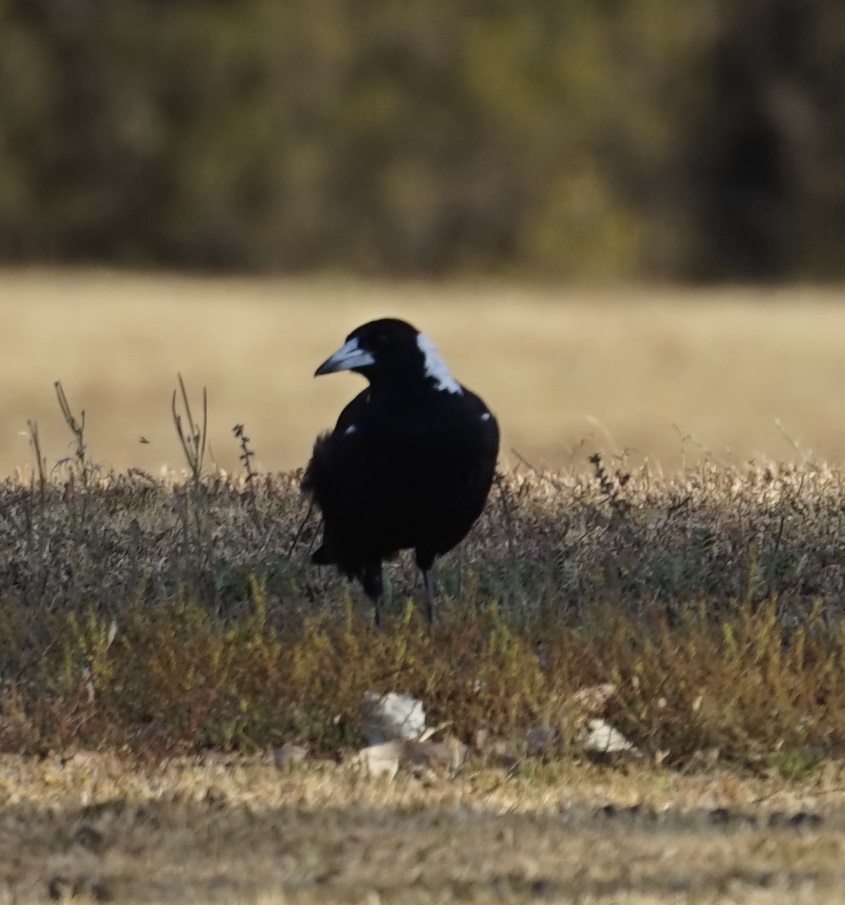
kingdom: Animalia
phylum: Chordata
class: Aves
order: Passeriformes
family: Cracticidae
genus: Gymnorhina
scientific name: Gymnorhina tibicen
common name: Australian magpie
